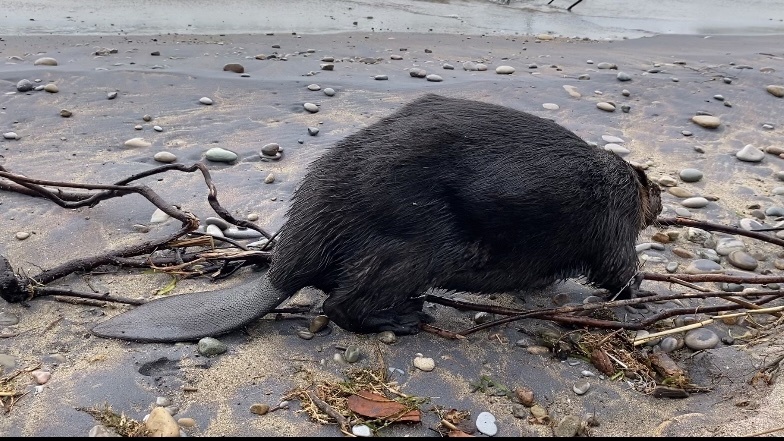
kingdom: Animalia
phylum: Chordata
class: Mammalia
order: Rodentia
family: Castoridae
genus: Castor
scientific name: Castor canadensis
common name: American beaver
